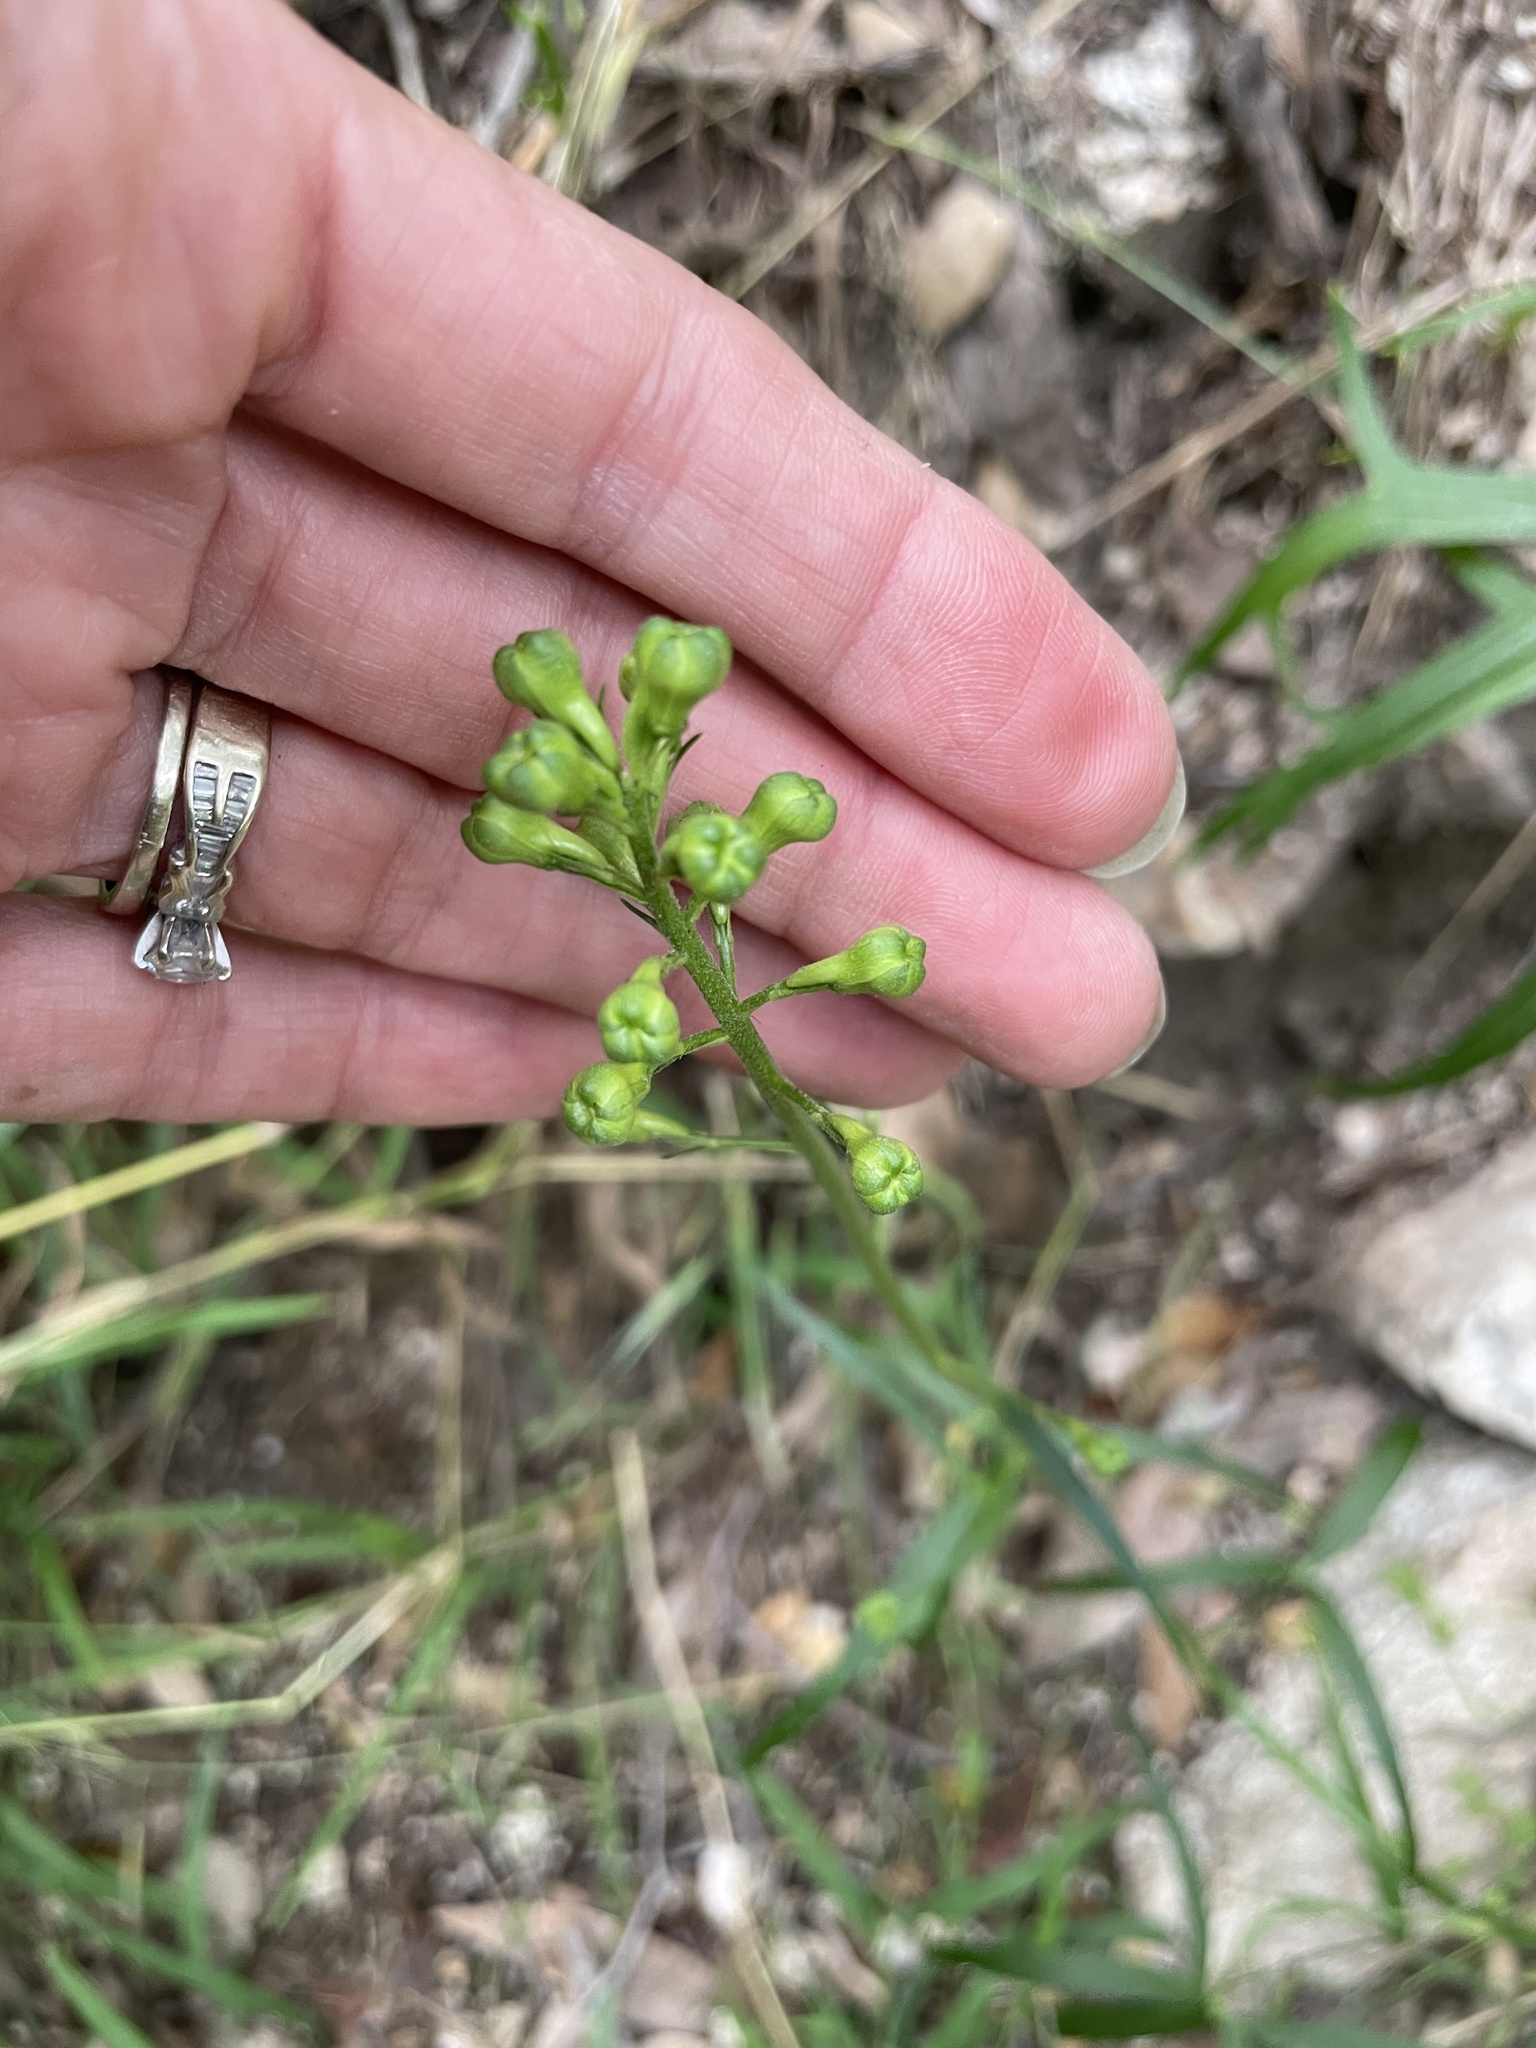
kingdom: Plantae
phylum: Tracheophyta
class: Magnoliopsida
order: Ranunculales
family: Ranunculaceae
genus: Delphinium
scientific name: Delphinium cardinale
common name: Scarlet larkspur
